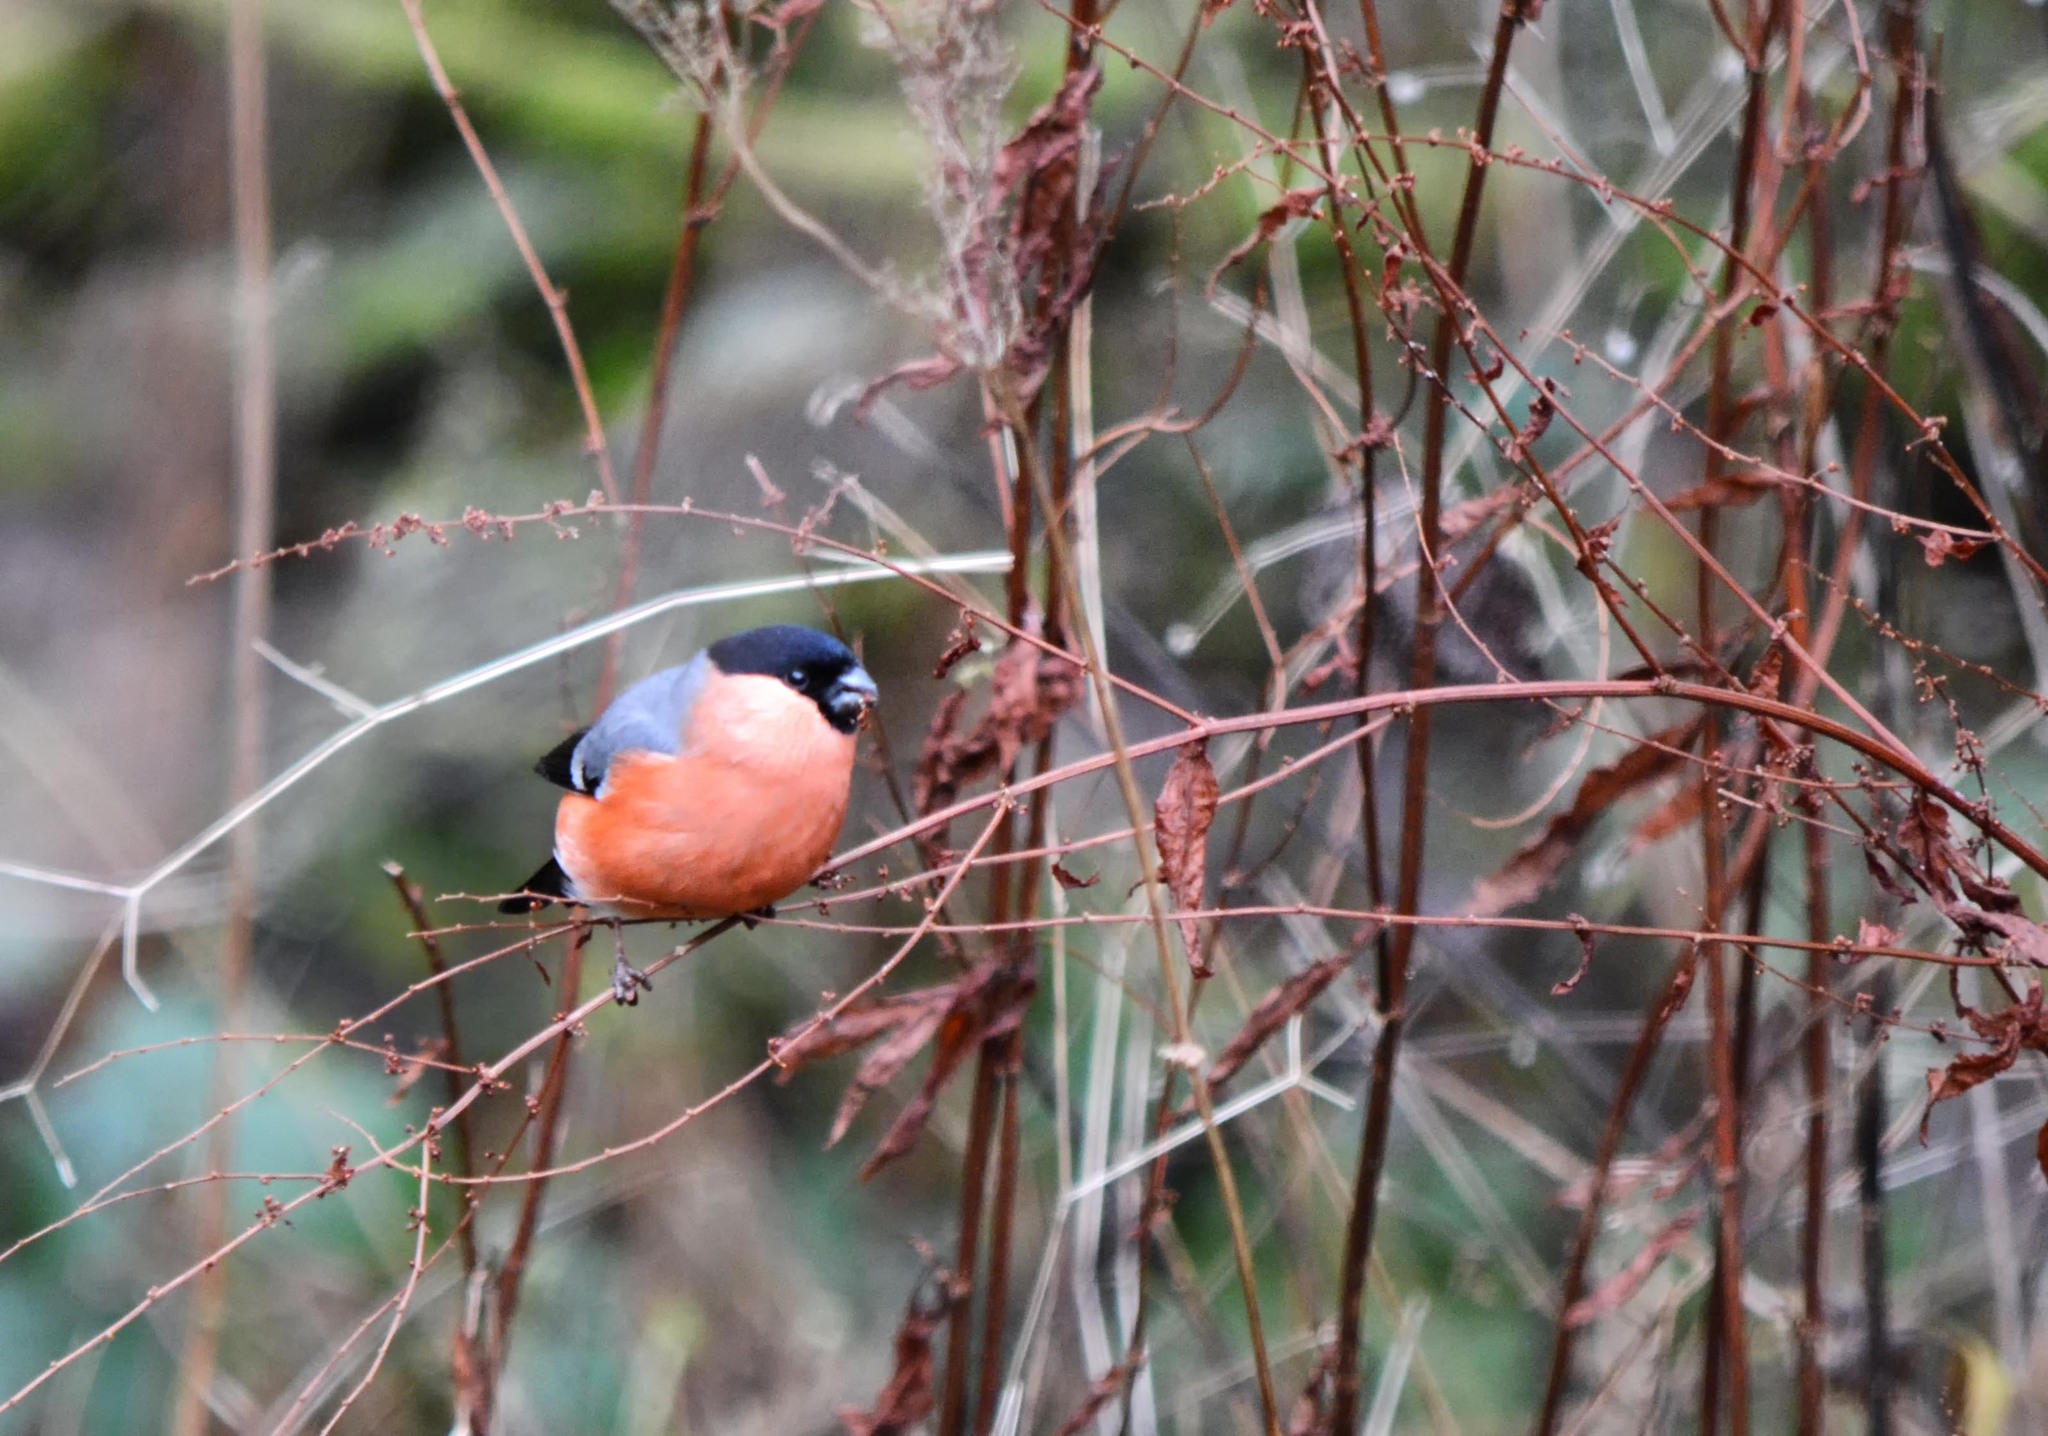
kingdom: Animalia
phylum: Chordata
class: Aves
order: Passeriformes
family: Fringillidae
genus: Pyrrhula
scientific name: Pyrrhula pyrrhula
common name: Eurasian bullfinch
